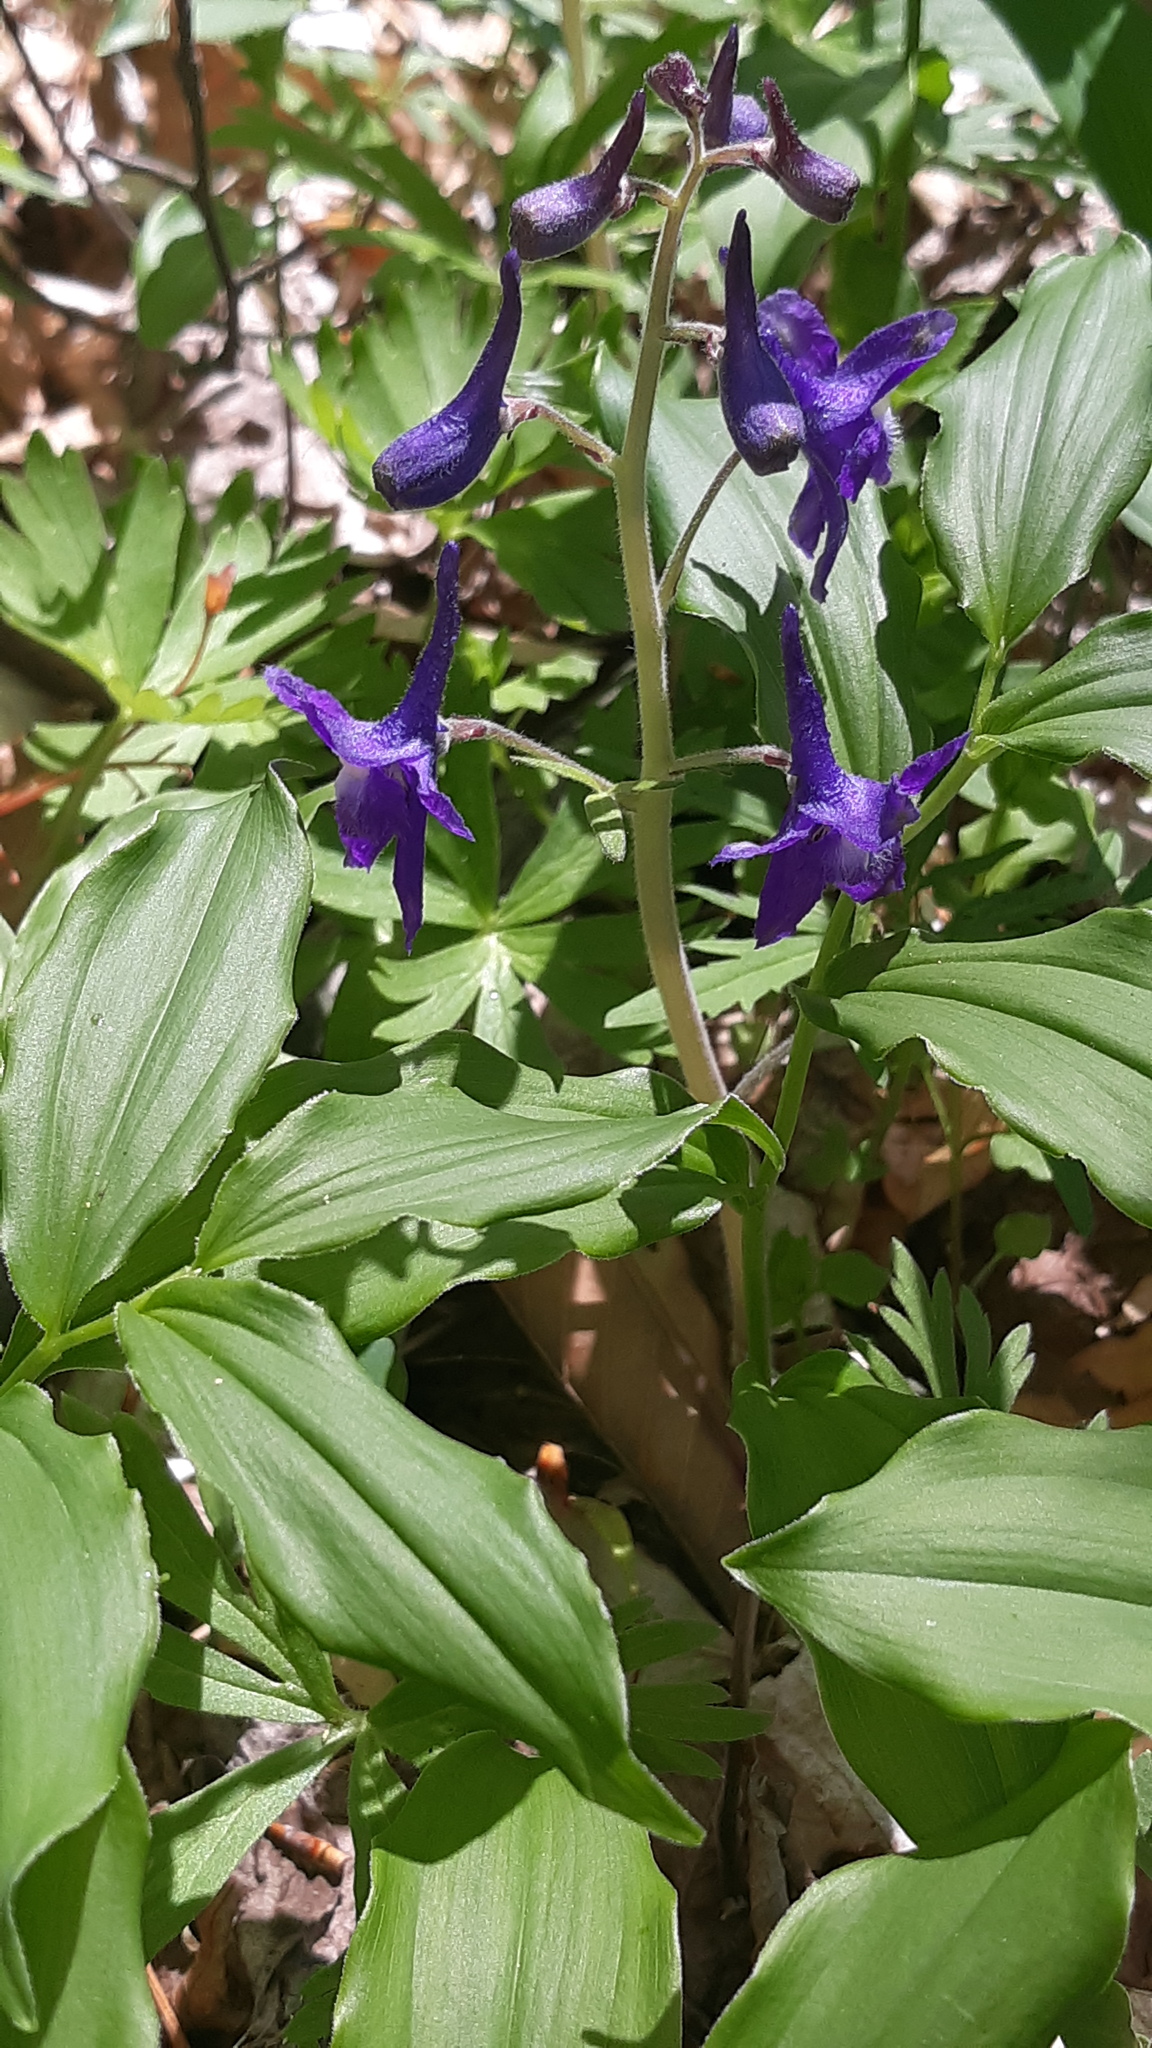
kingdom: Plantae
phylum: Tracheophyta
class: Magnoliopsida
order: Ranunculales
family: Ranunculaceae
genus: Delphinium
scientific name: Delphinium tricorne
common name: Dwarf larkspur
